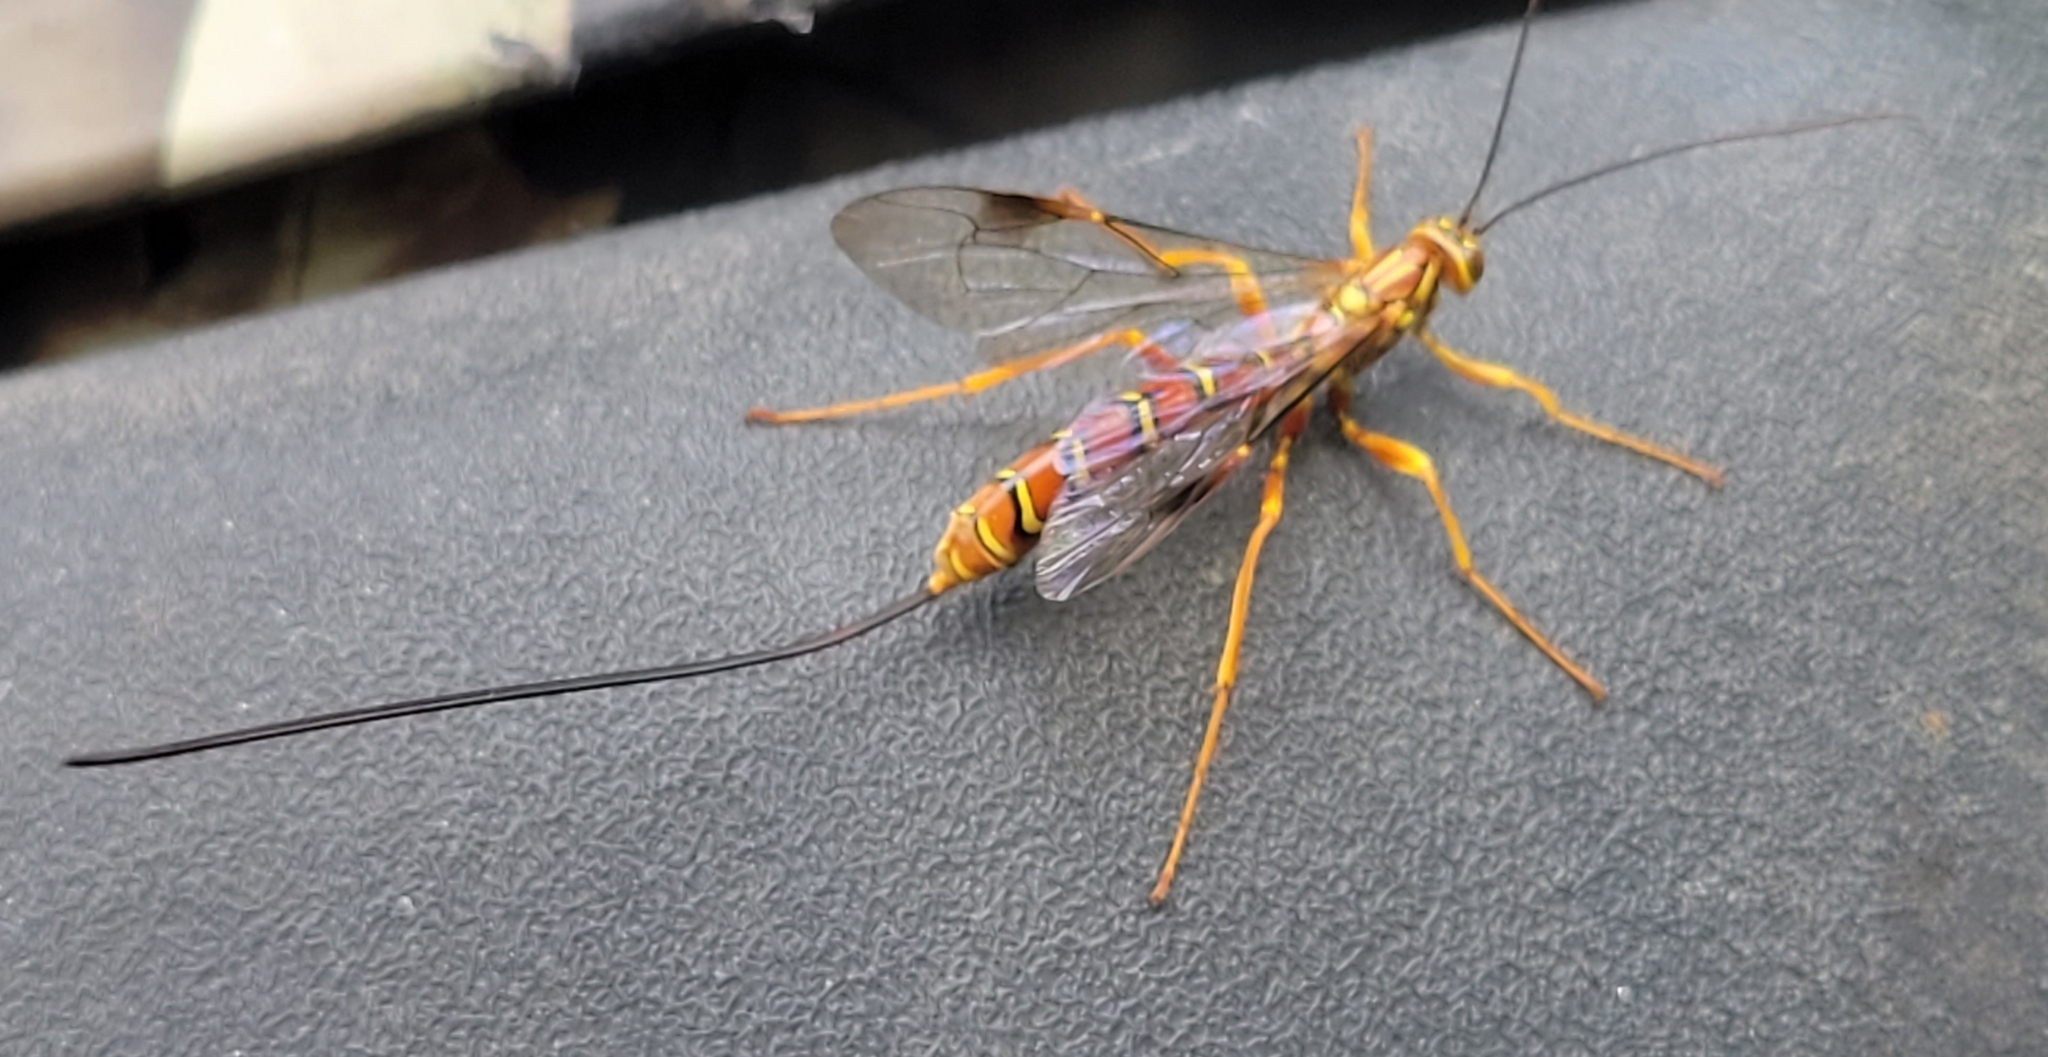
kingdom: Animalia
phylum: Arthropoda
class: Insecta
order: Hymenoptera
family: Ichneumonidae
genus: Megarhyssa
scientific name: Megarhyssa greenei
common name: Greene's giant ichneumonid wasp
